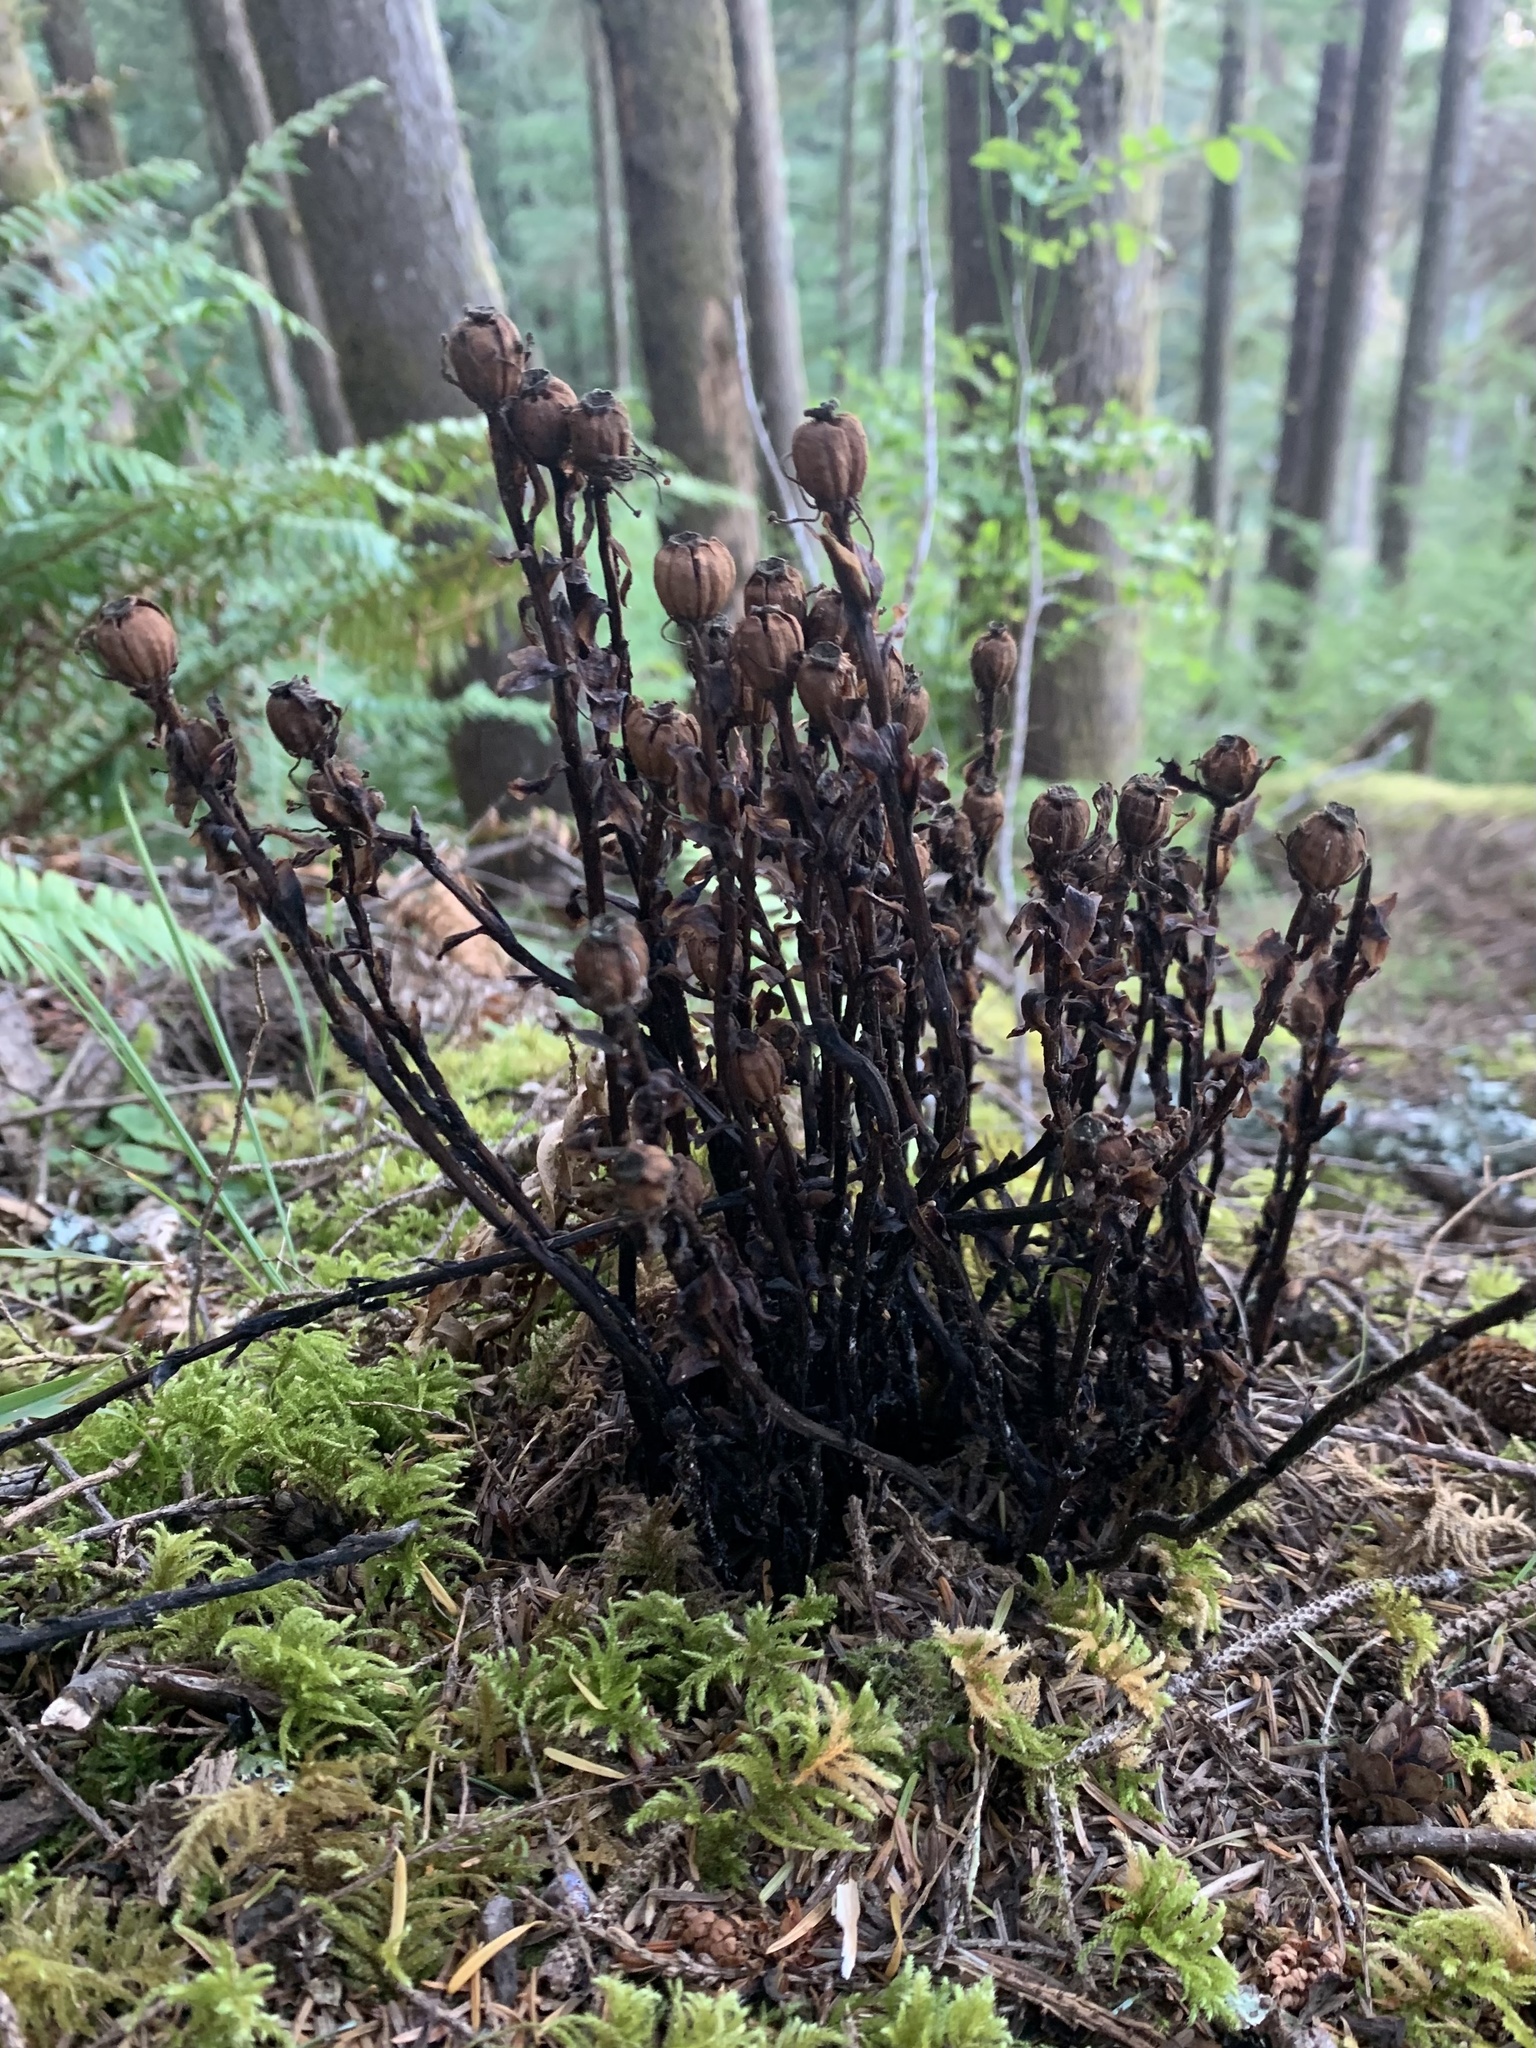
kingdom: Plantae
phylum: Tracheophyta
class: Magnoliopsida
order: Ericales
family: Ericaceae
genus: Monotropa
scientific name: Monotropa uniflora
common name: Convulsion root
